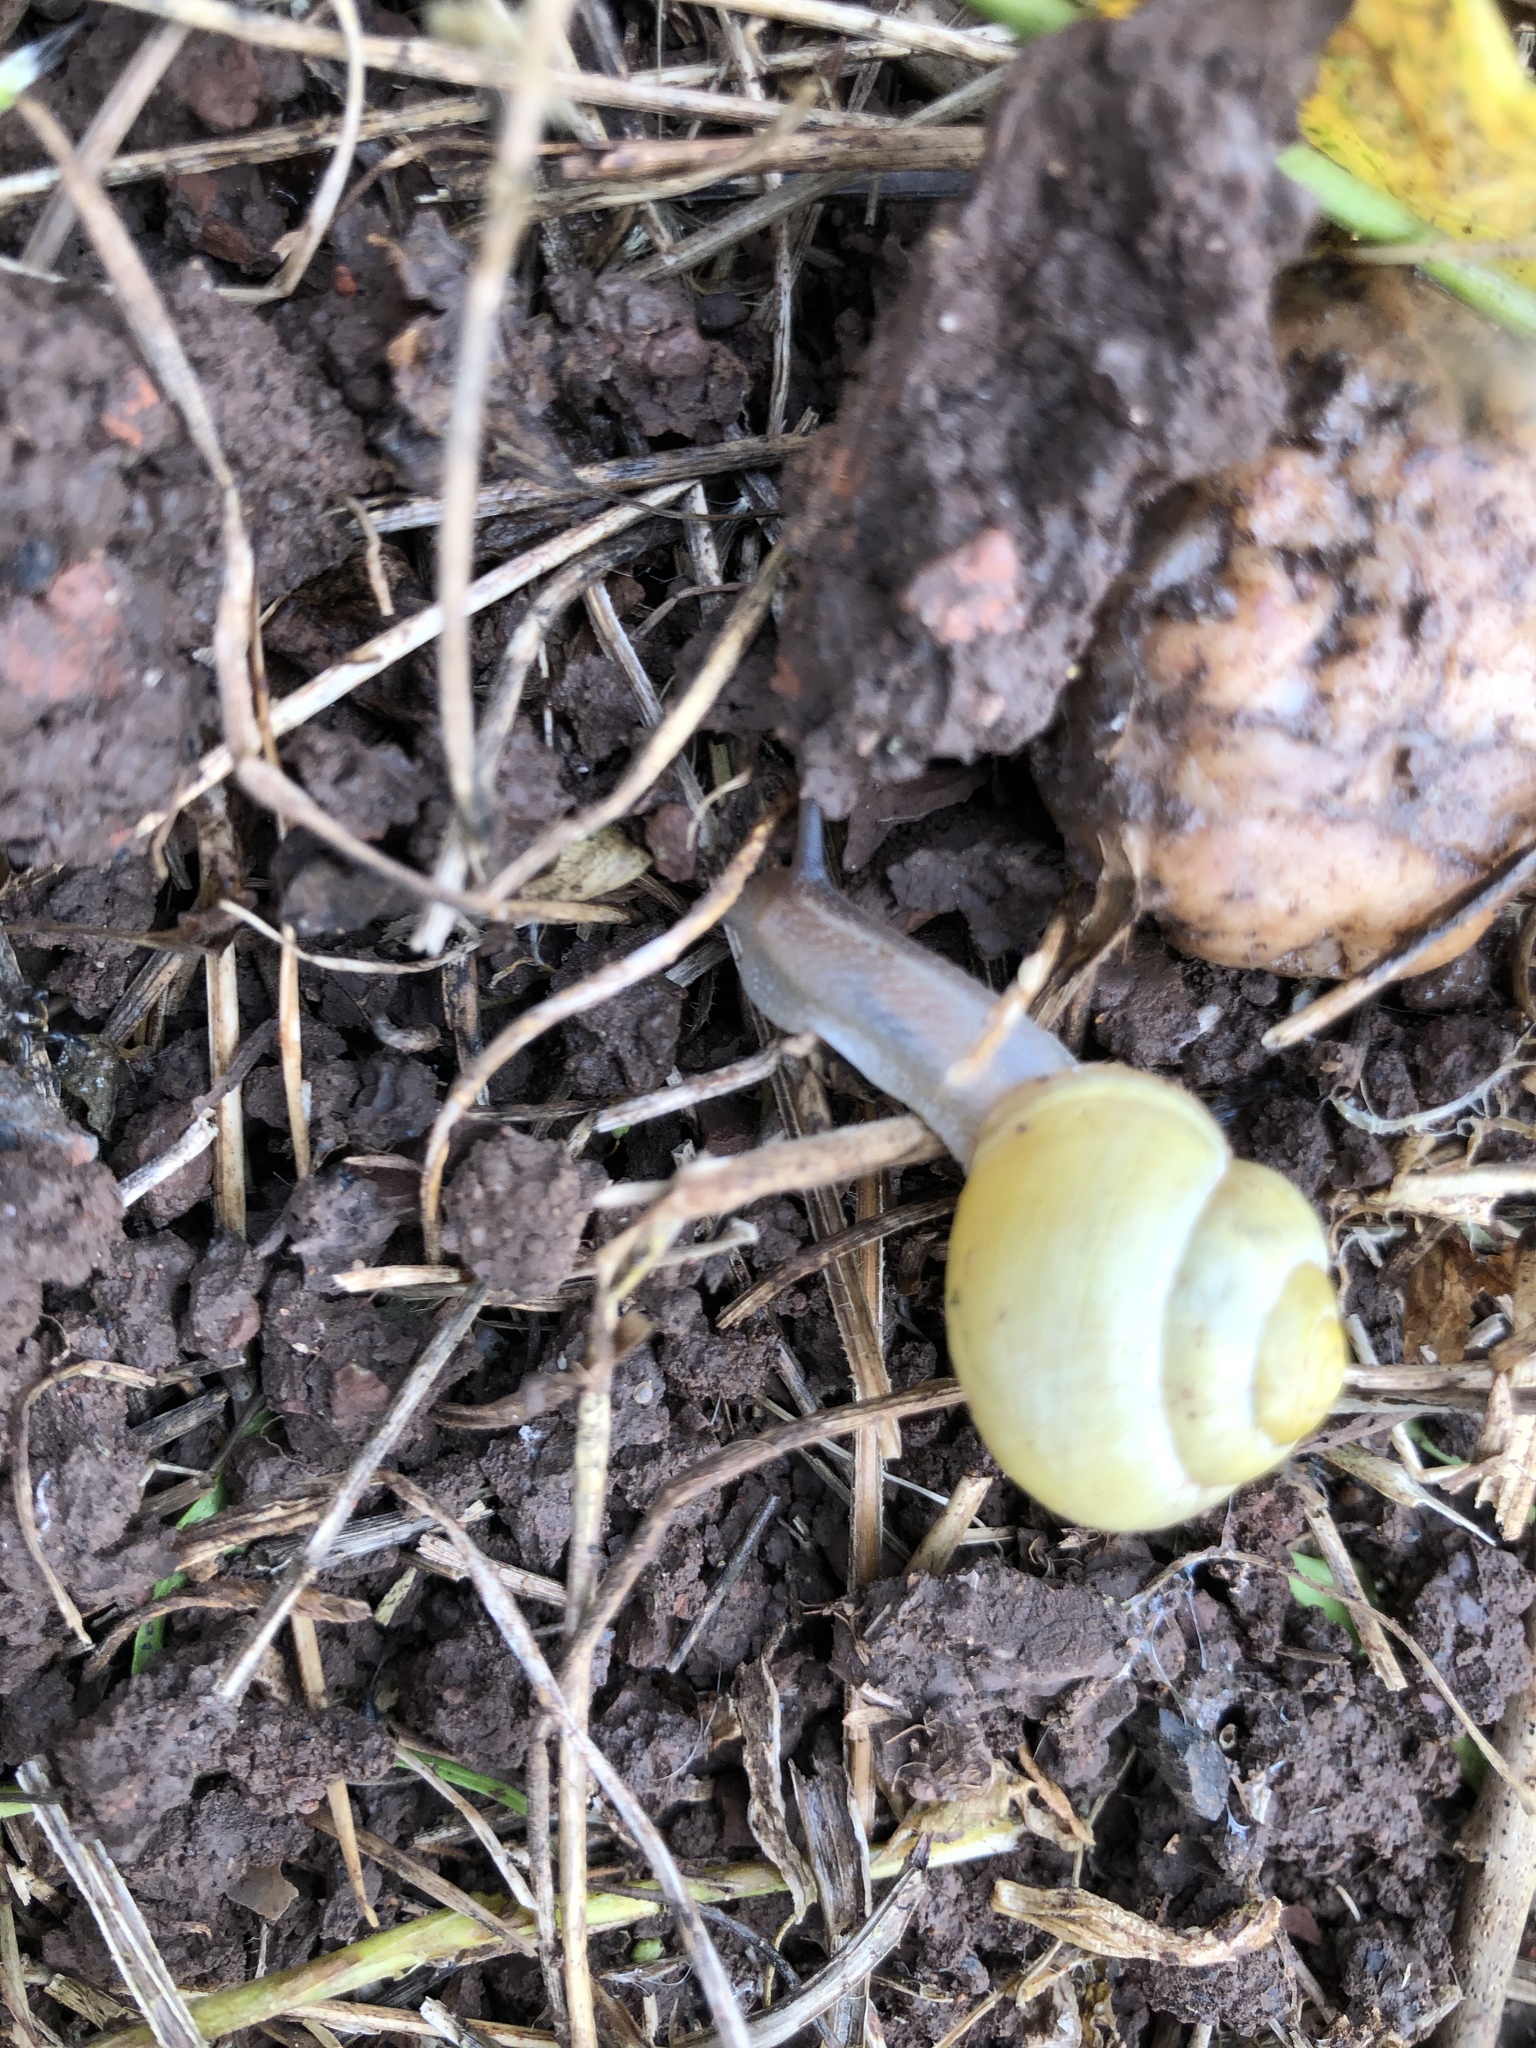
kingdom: Animalia
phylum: Mollusca
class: Gastropoda
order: Stylommatophora
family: Helicidae
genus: Cepaea
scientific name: Cepaea hortensis
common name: White-lip gardensnail
